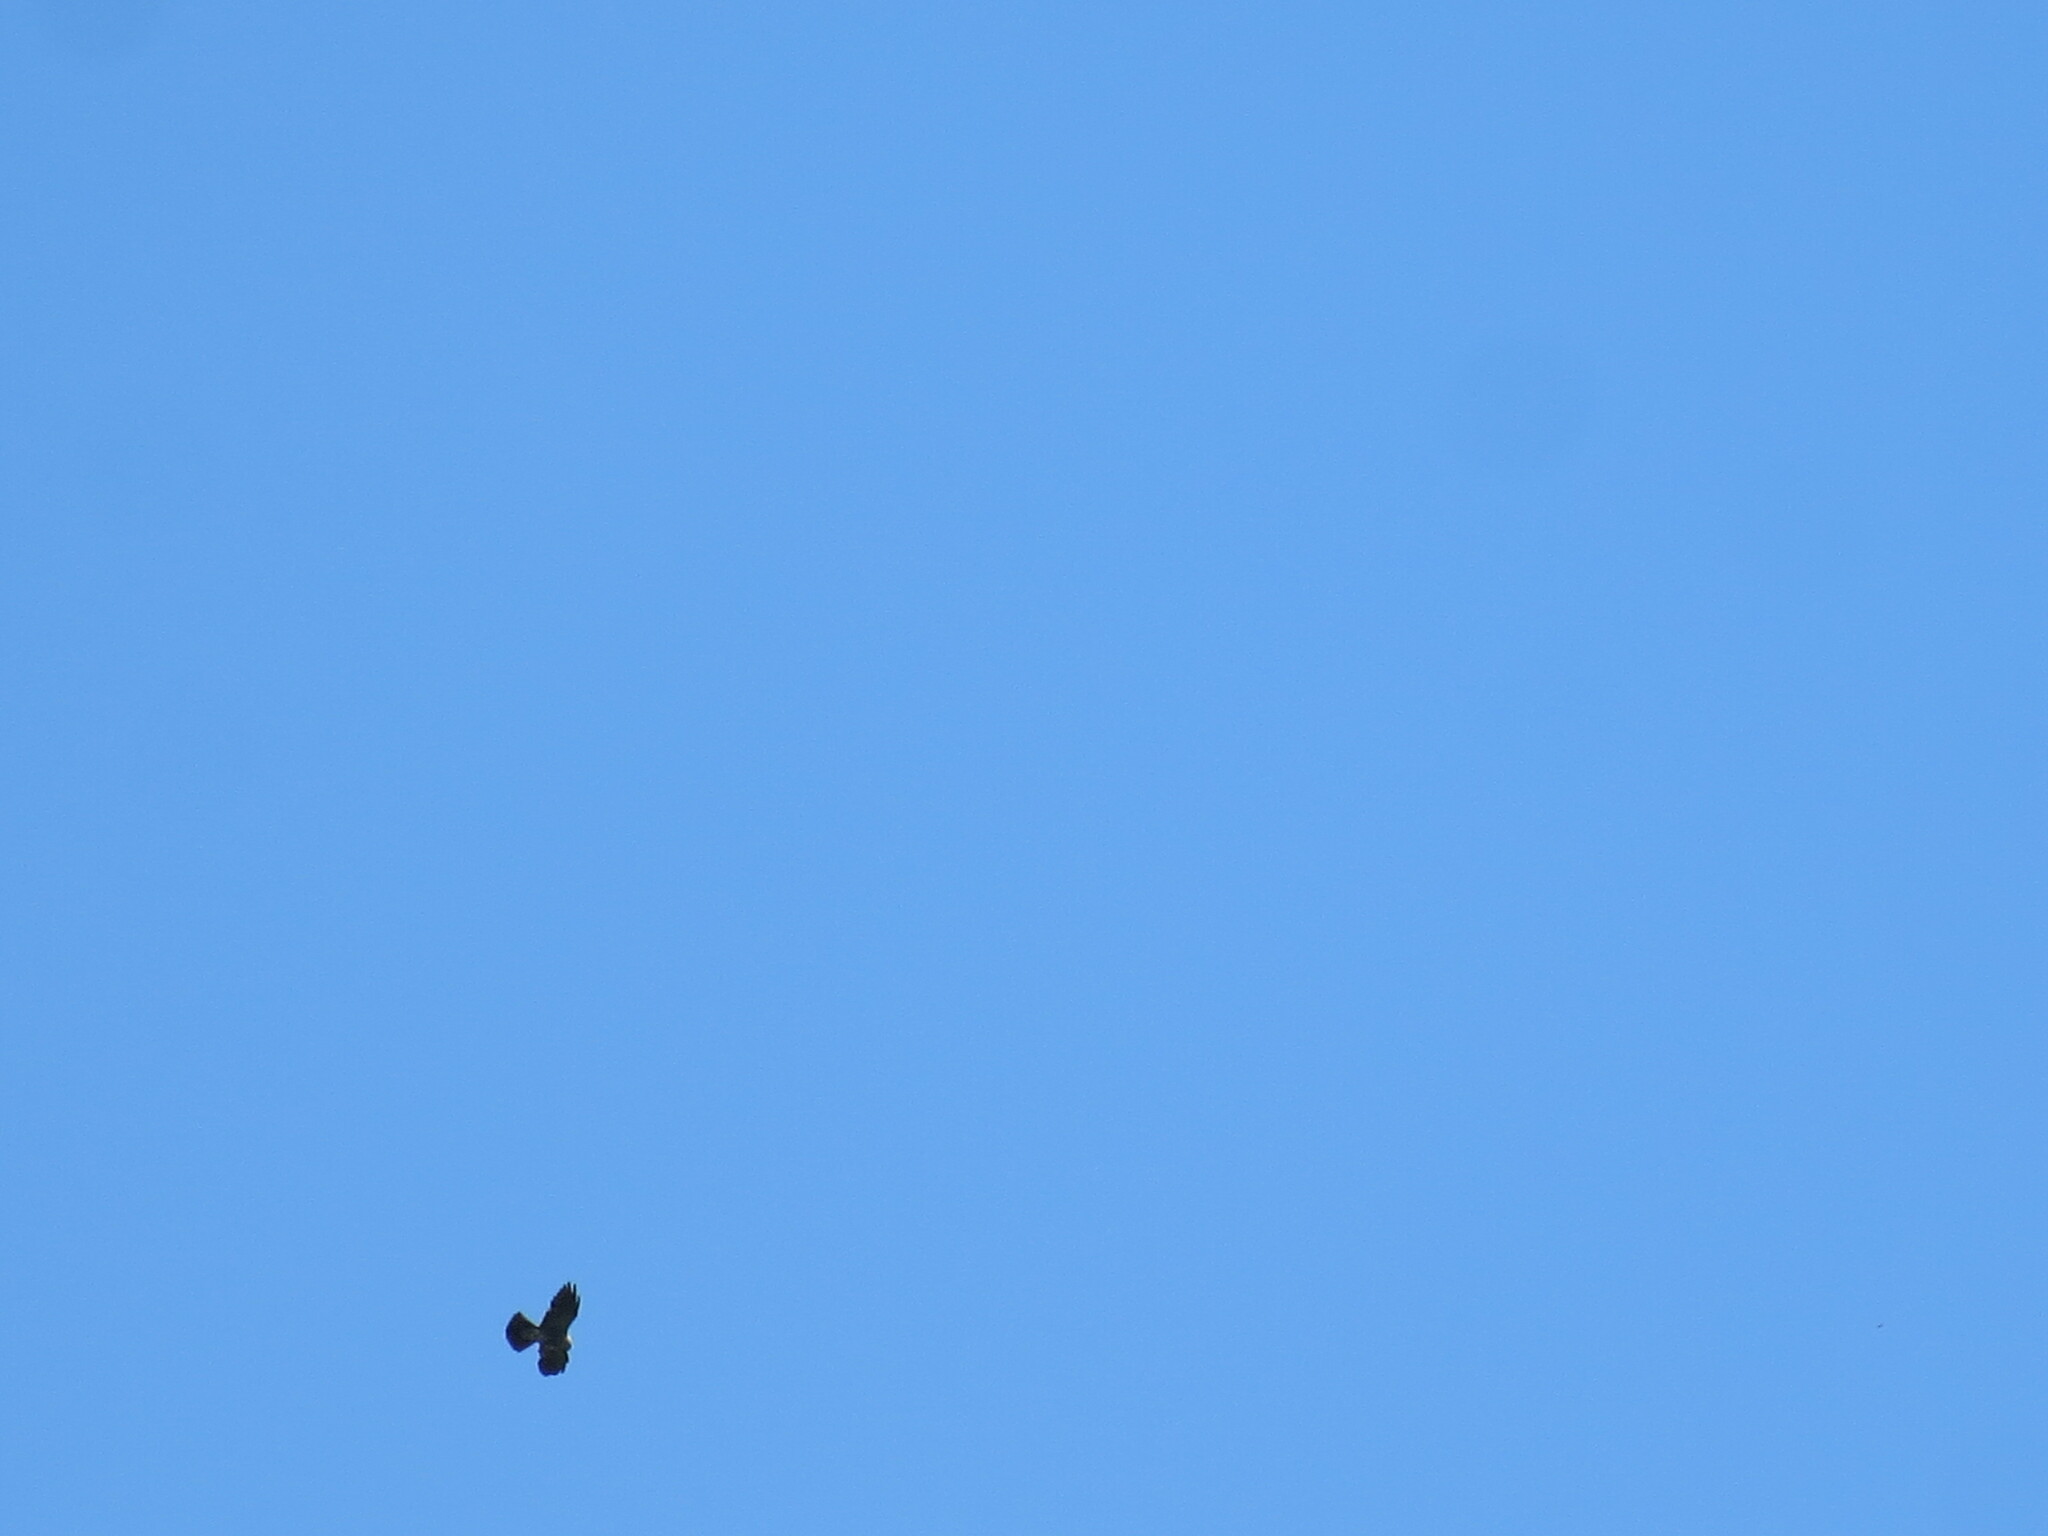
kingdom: Animalia
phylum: Chordata
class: Aves
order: Accipitriformes
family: Accipitridae
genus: Ictinia
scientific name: Ictinia mississippiensis
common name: Mississippi kite
